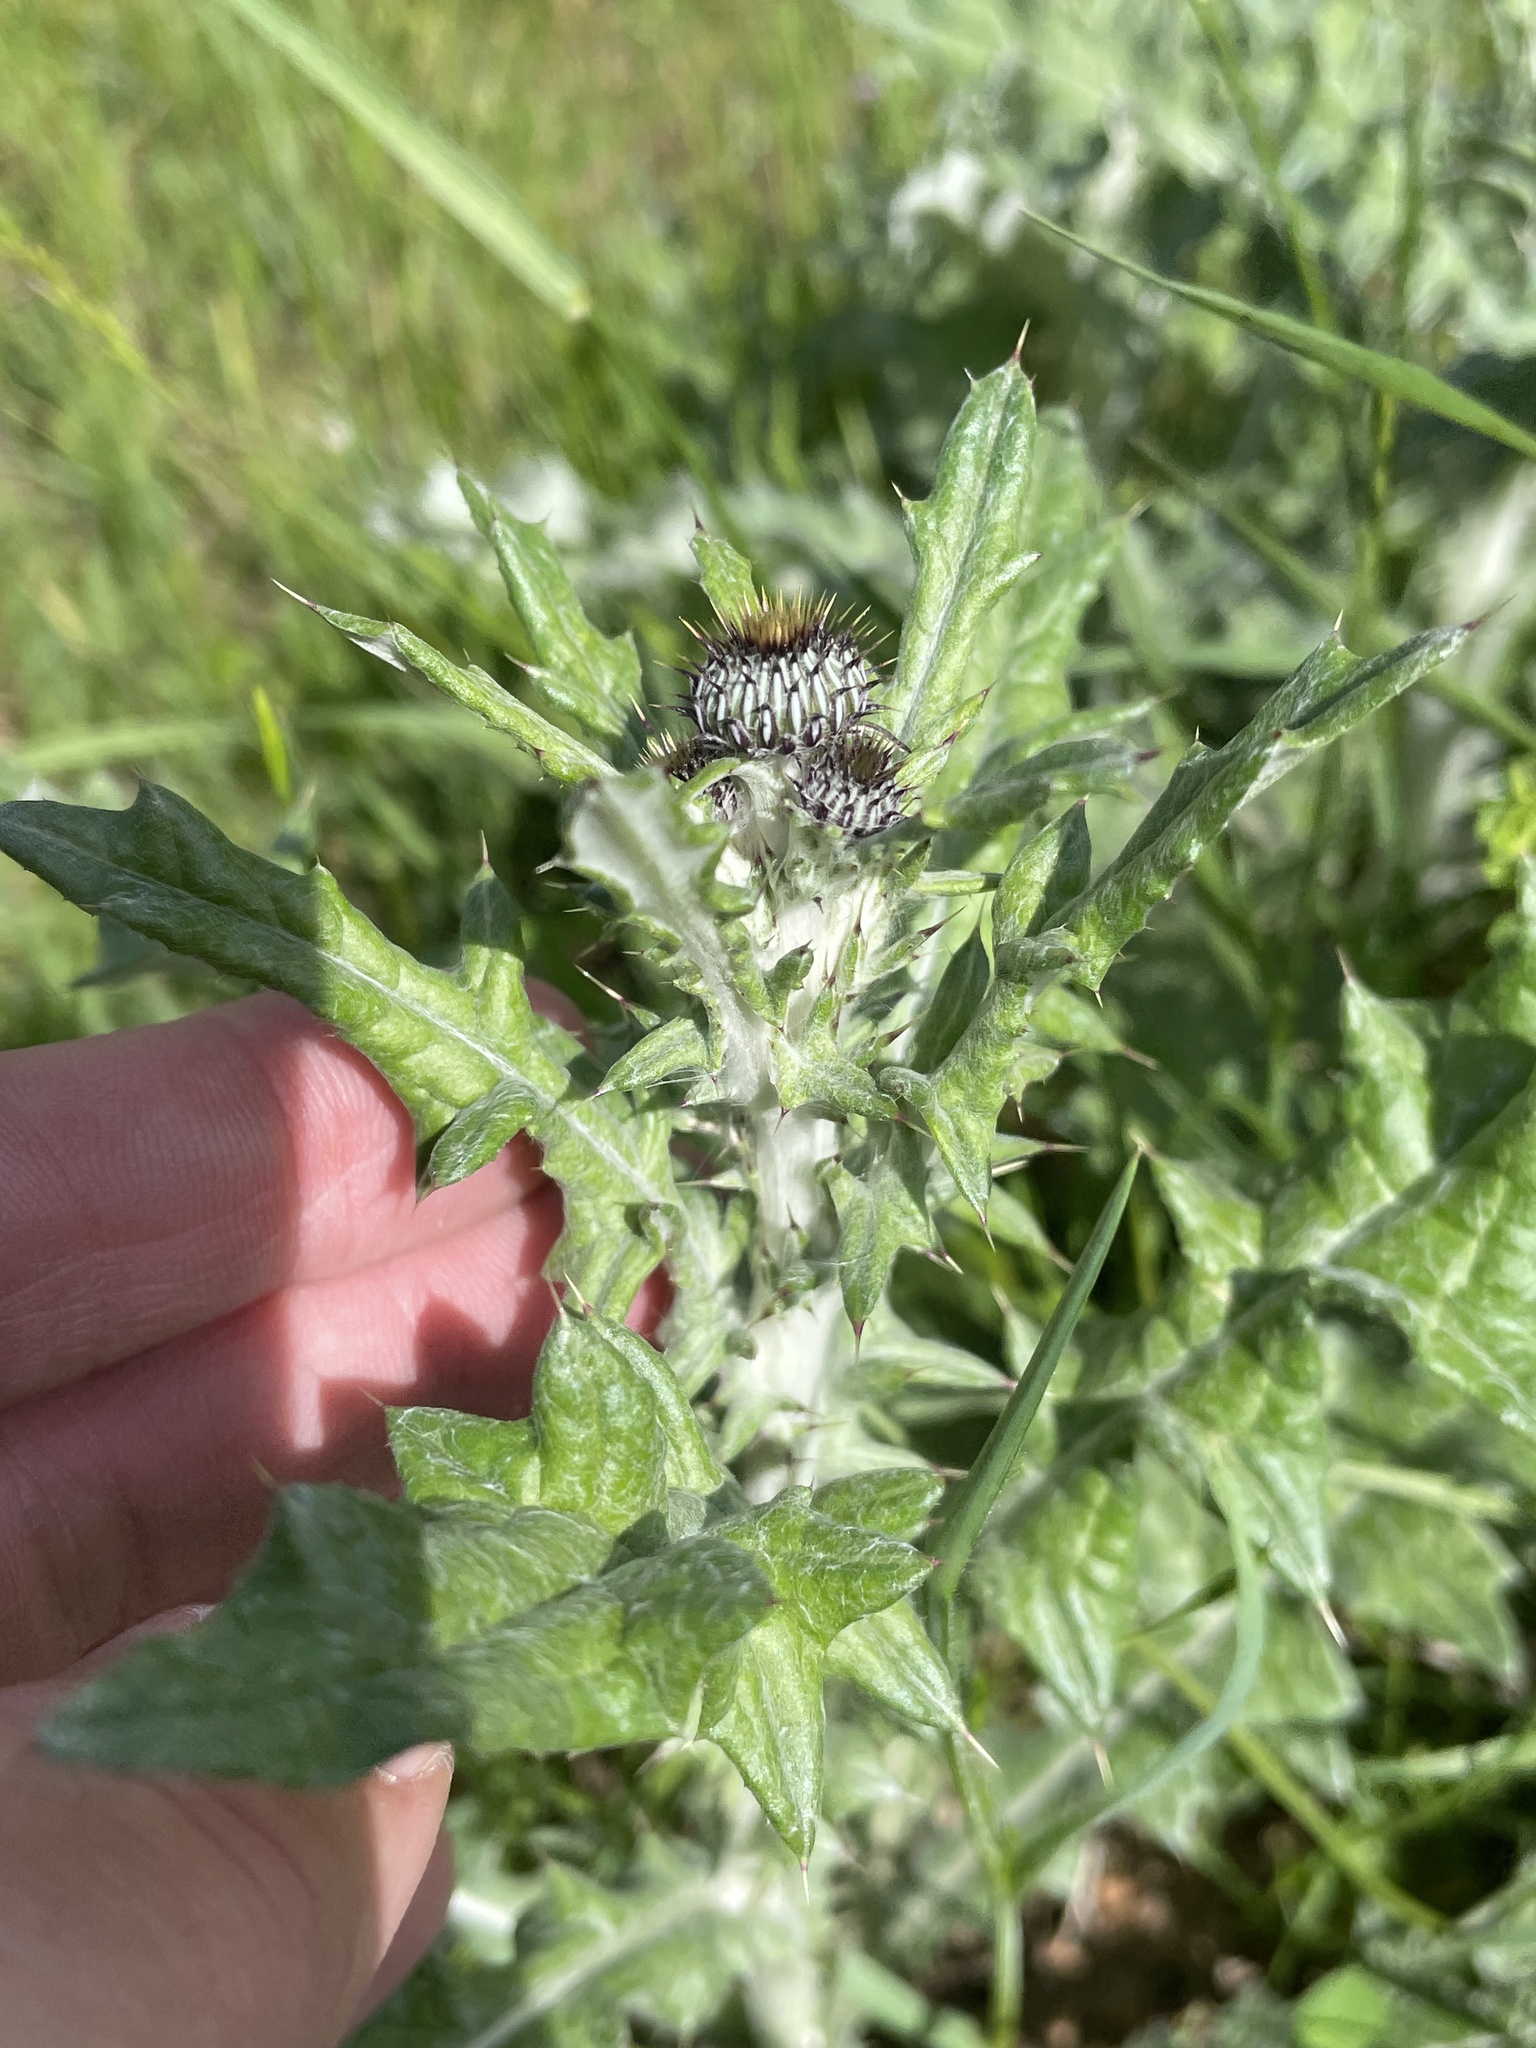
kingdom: Plantae
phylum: Tracheophyta
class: Magnoliopsida
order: Asterales
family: Asteraceae
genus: Cirsium
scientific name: Cirsium texanum
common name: Texas purple thistle
